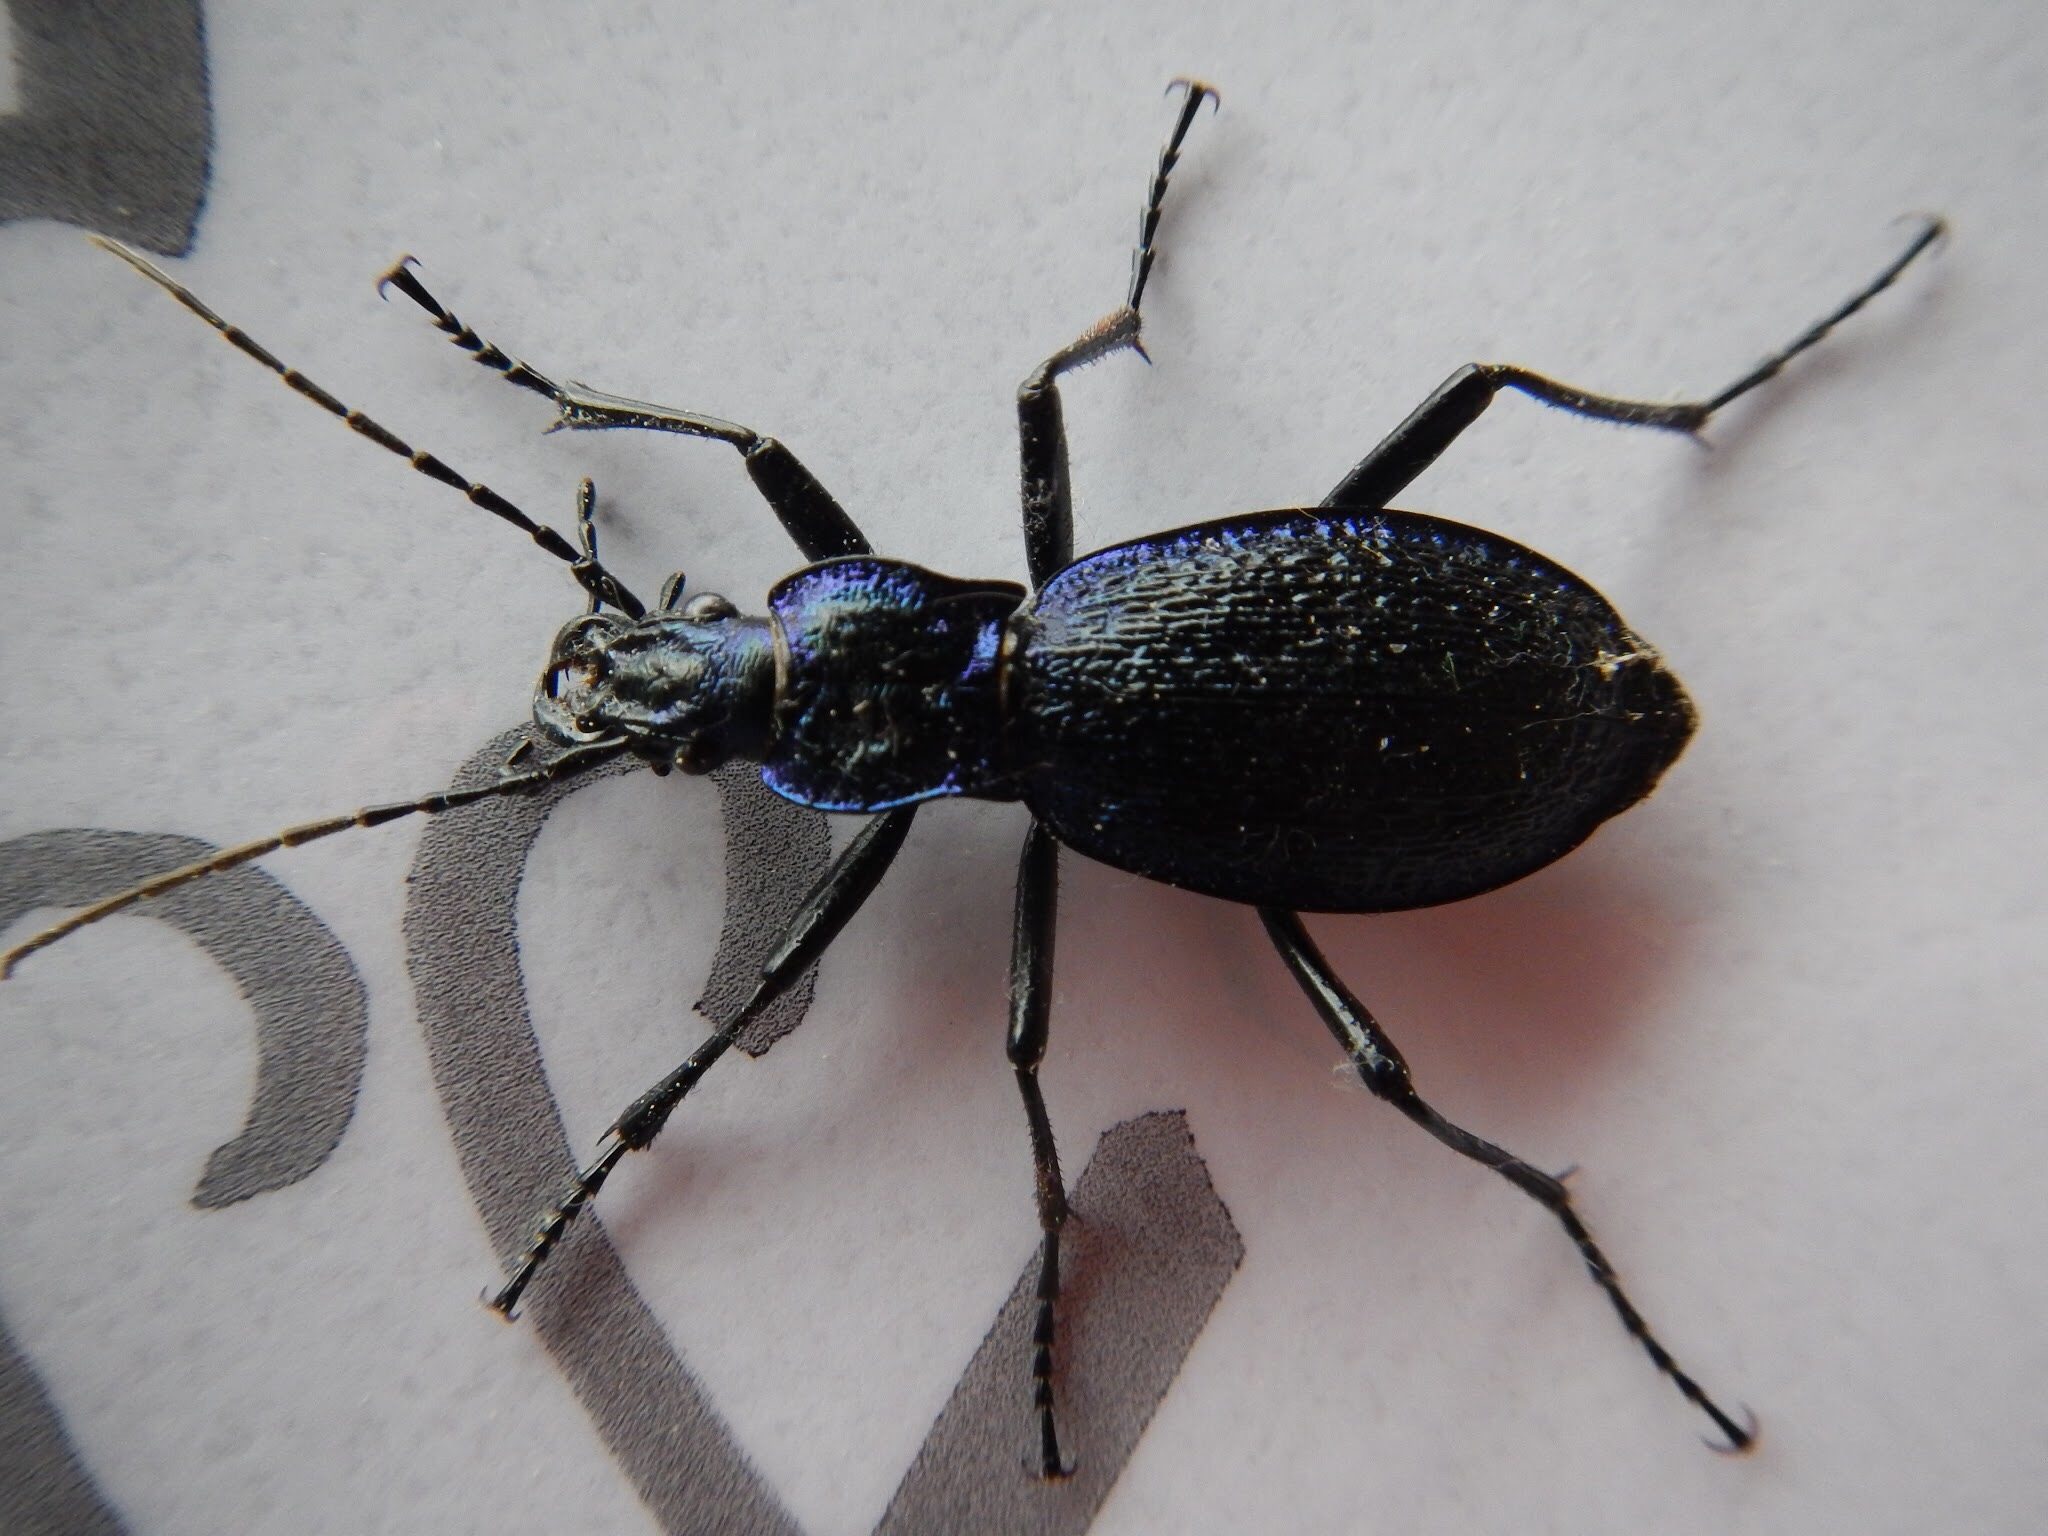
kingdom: Animalia
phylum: Arthropoda
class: Insecta
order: Coleoptera
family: Carabidae
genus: Carabus
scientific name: Carabus intricatus
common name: Blue ground beetle
